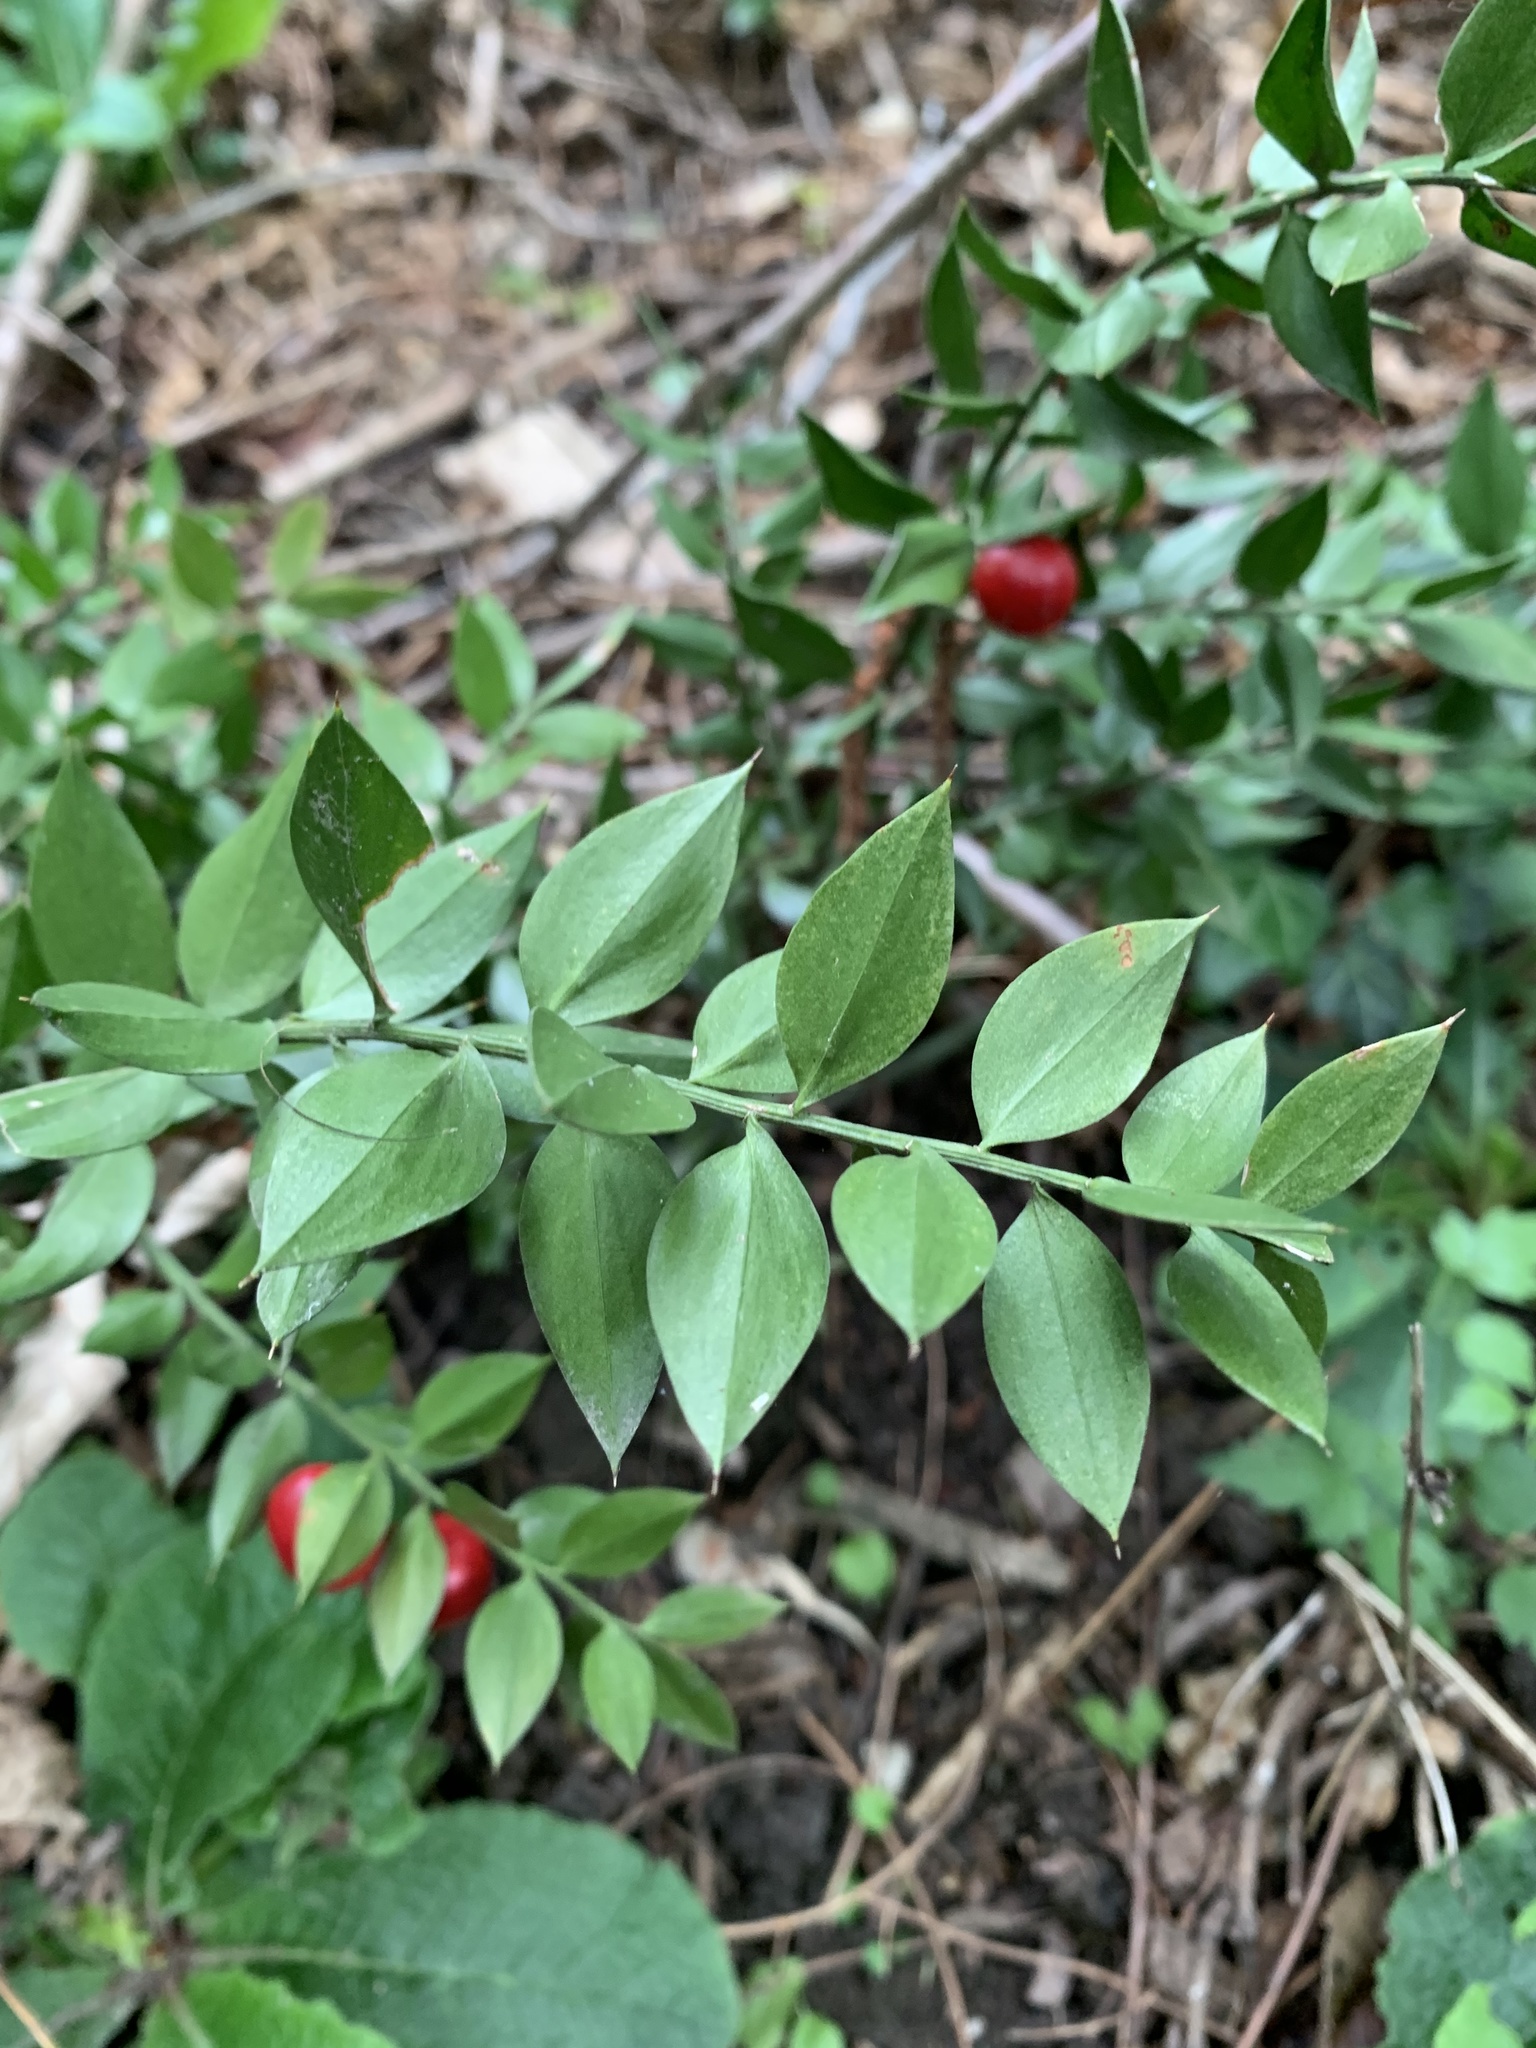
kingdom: Plantae
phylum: Tracheophyta
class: Liliopsida
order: Asparagales
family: Asparagaceae
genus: Ruscus
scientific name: Ruscus aculeatus
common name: Butcher's-broom
